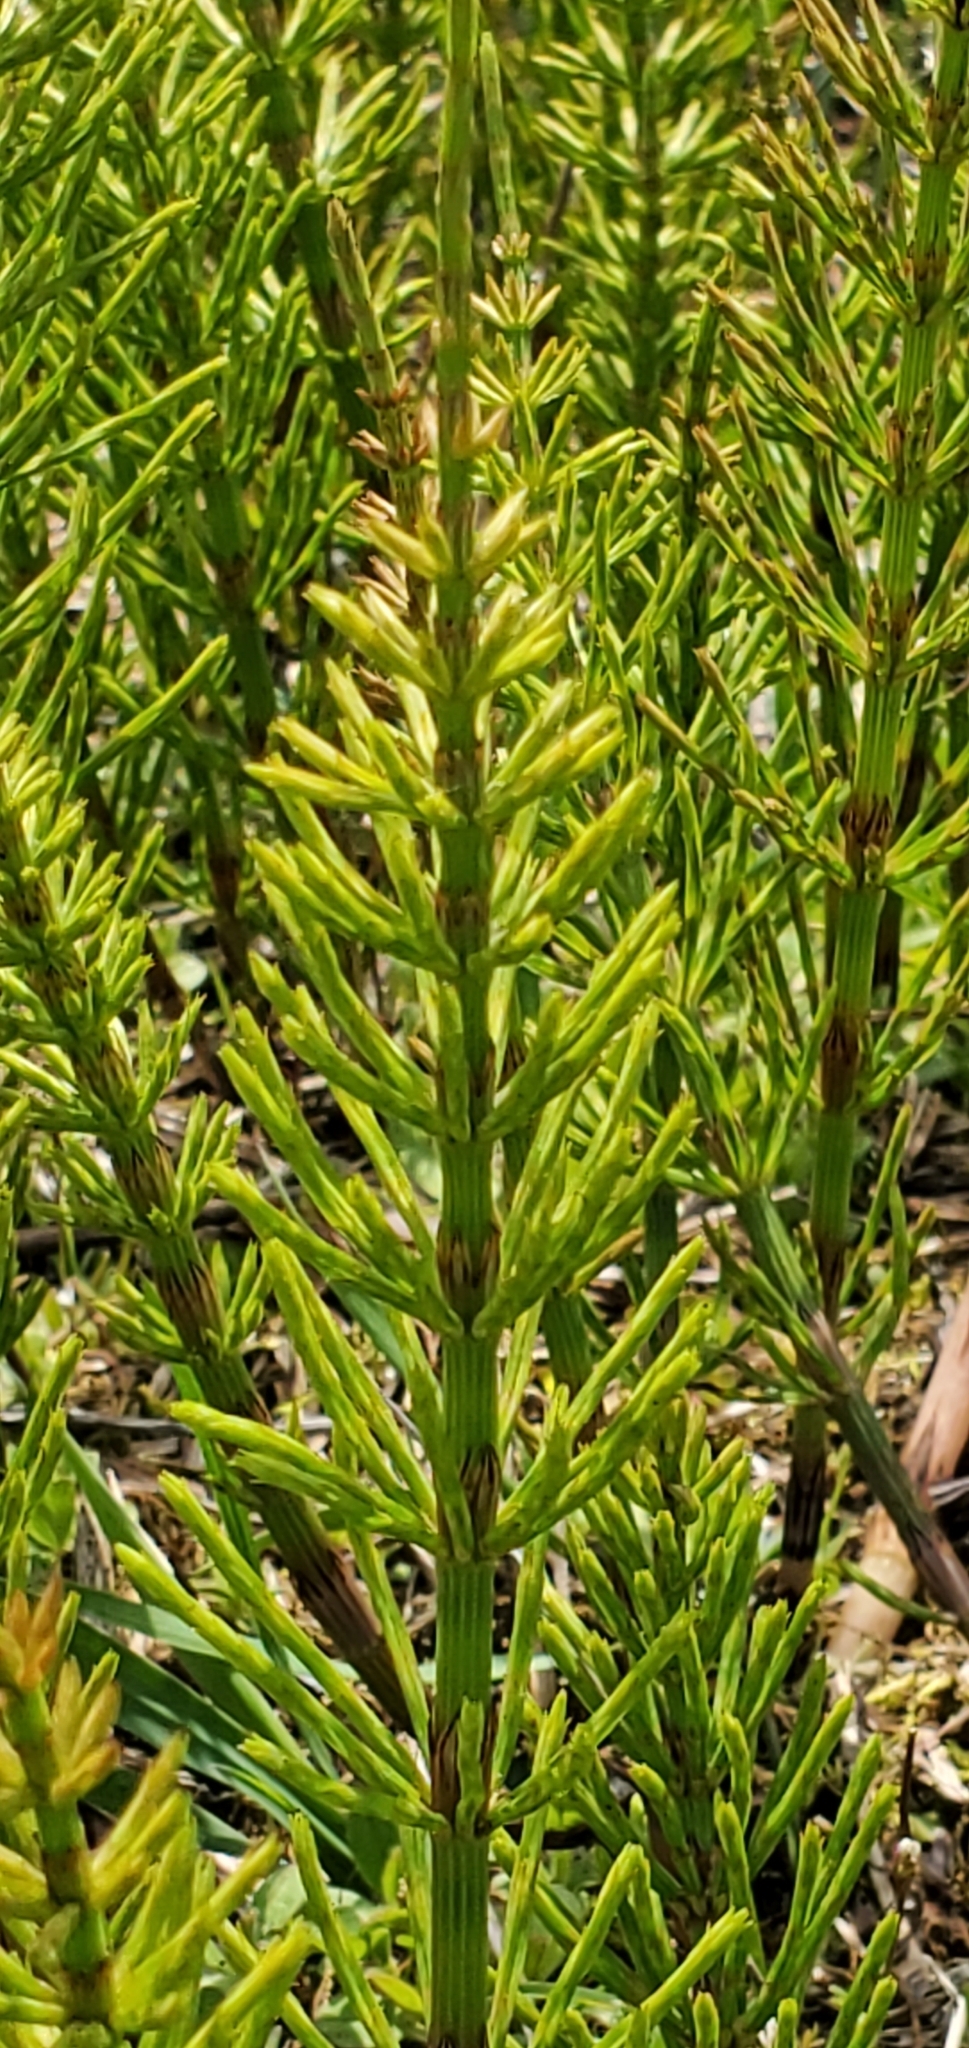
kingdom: Plantae
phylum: Tracheophyta
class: Polypodiopsida
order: Equisetales
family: Equisetaceae
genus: Equisetum
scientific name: Equisetum arvense
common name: Field horsetail
